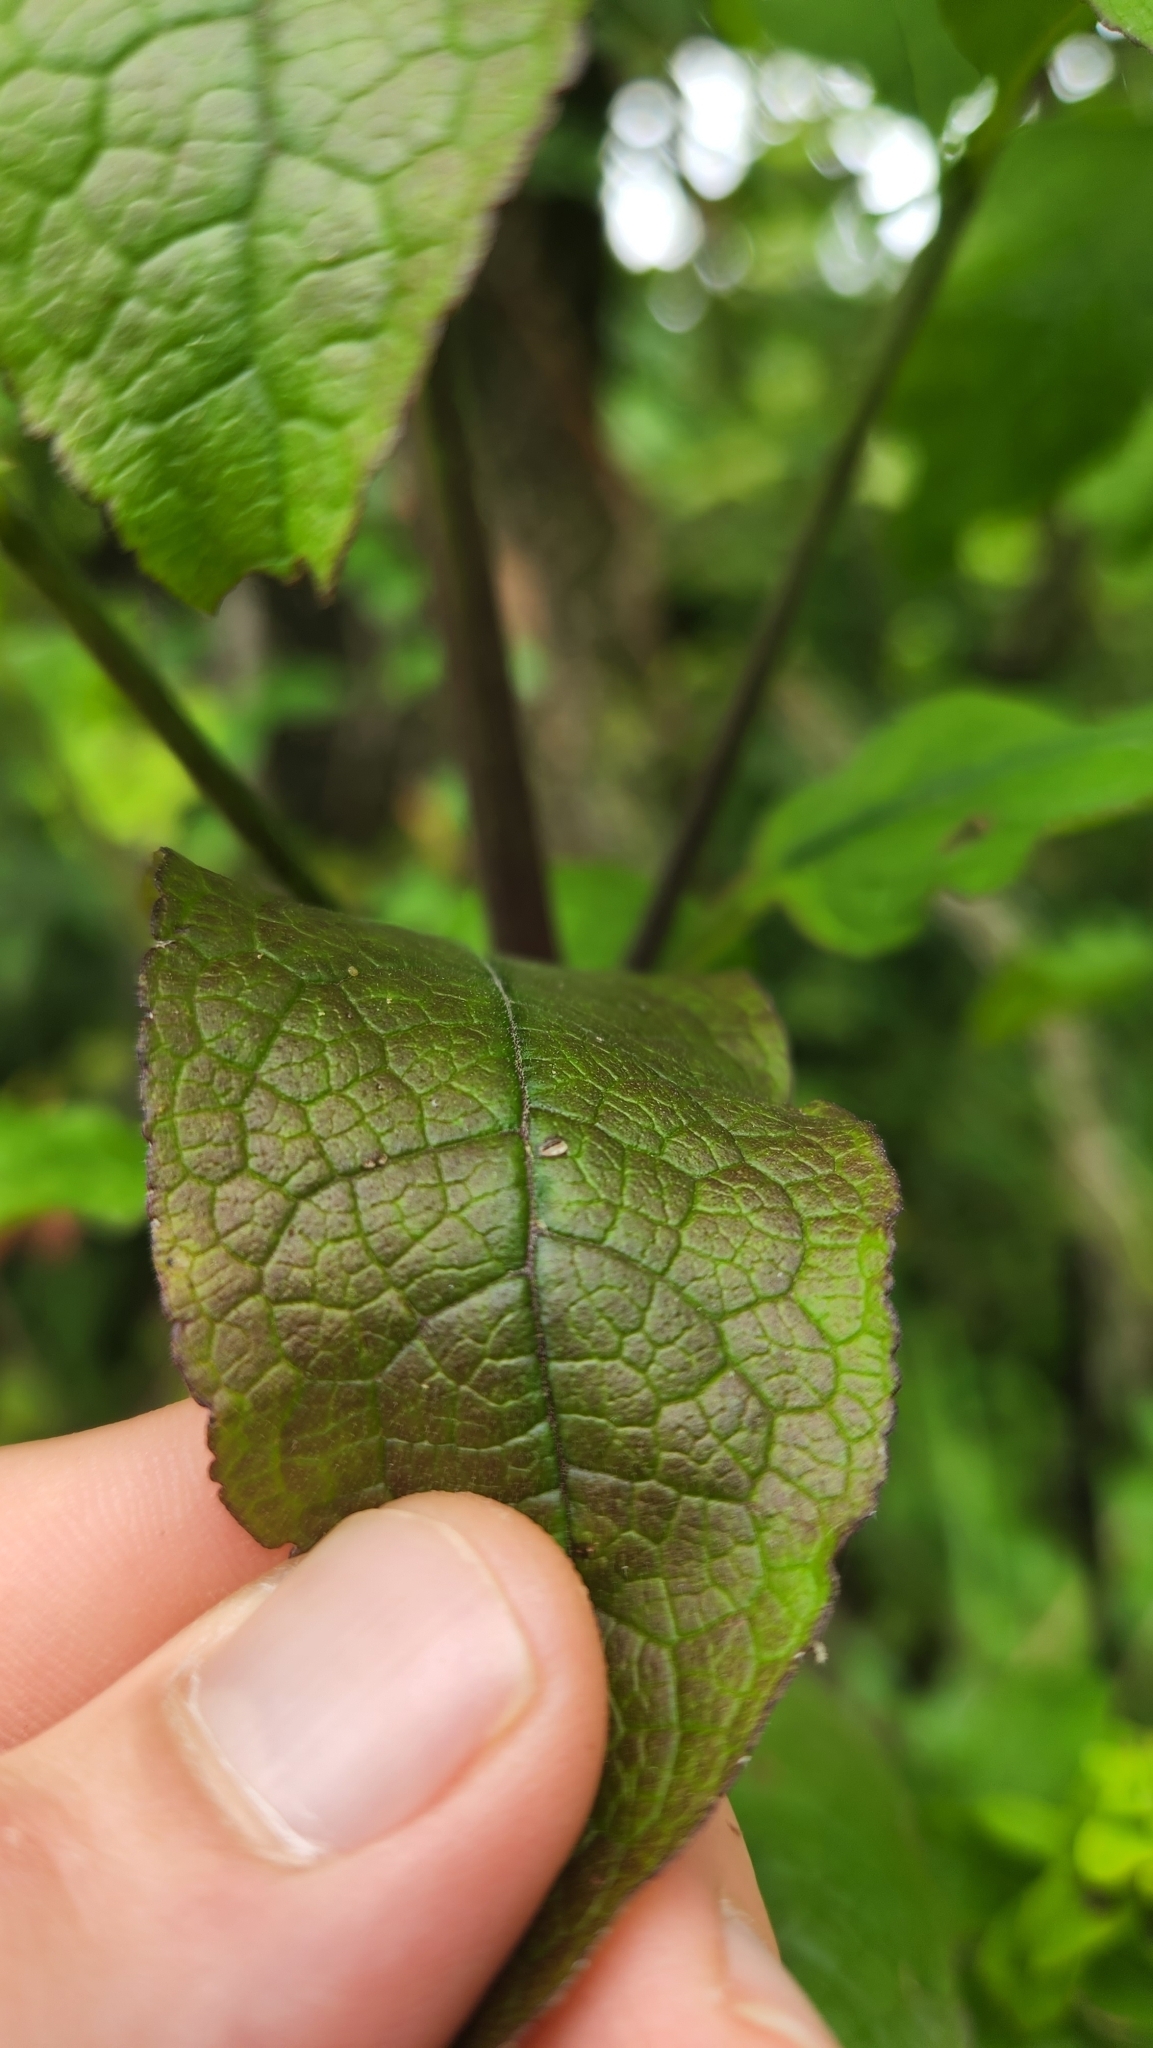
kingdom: Plantae
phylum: Tracheophyta
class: Magnoliopsida
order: Lamiales
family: Orobanchaceae
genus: Dasistoma
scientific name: Dasistoma macrophyllum
